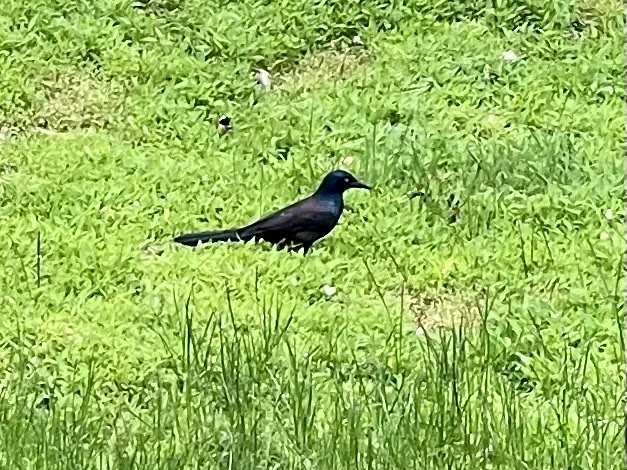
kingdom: Animalia
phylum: Chordata
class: Aves
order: Passeriformes
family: Icteridae
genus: Quiscalus
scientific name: Quiscalus major
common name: Boat-tailed grackle
